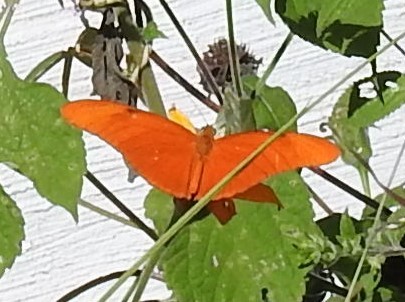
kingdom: Animalia
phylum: Arthropoda
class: Insecta
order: Lepidoptera
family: Nymphalidae
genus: Dryas
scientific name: Dryas iulia
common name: Flambeau
